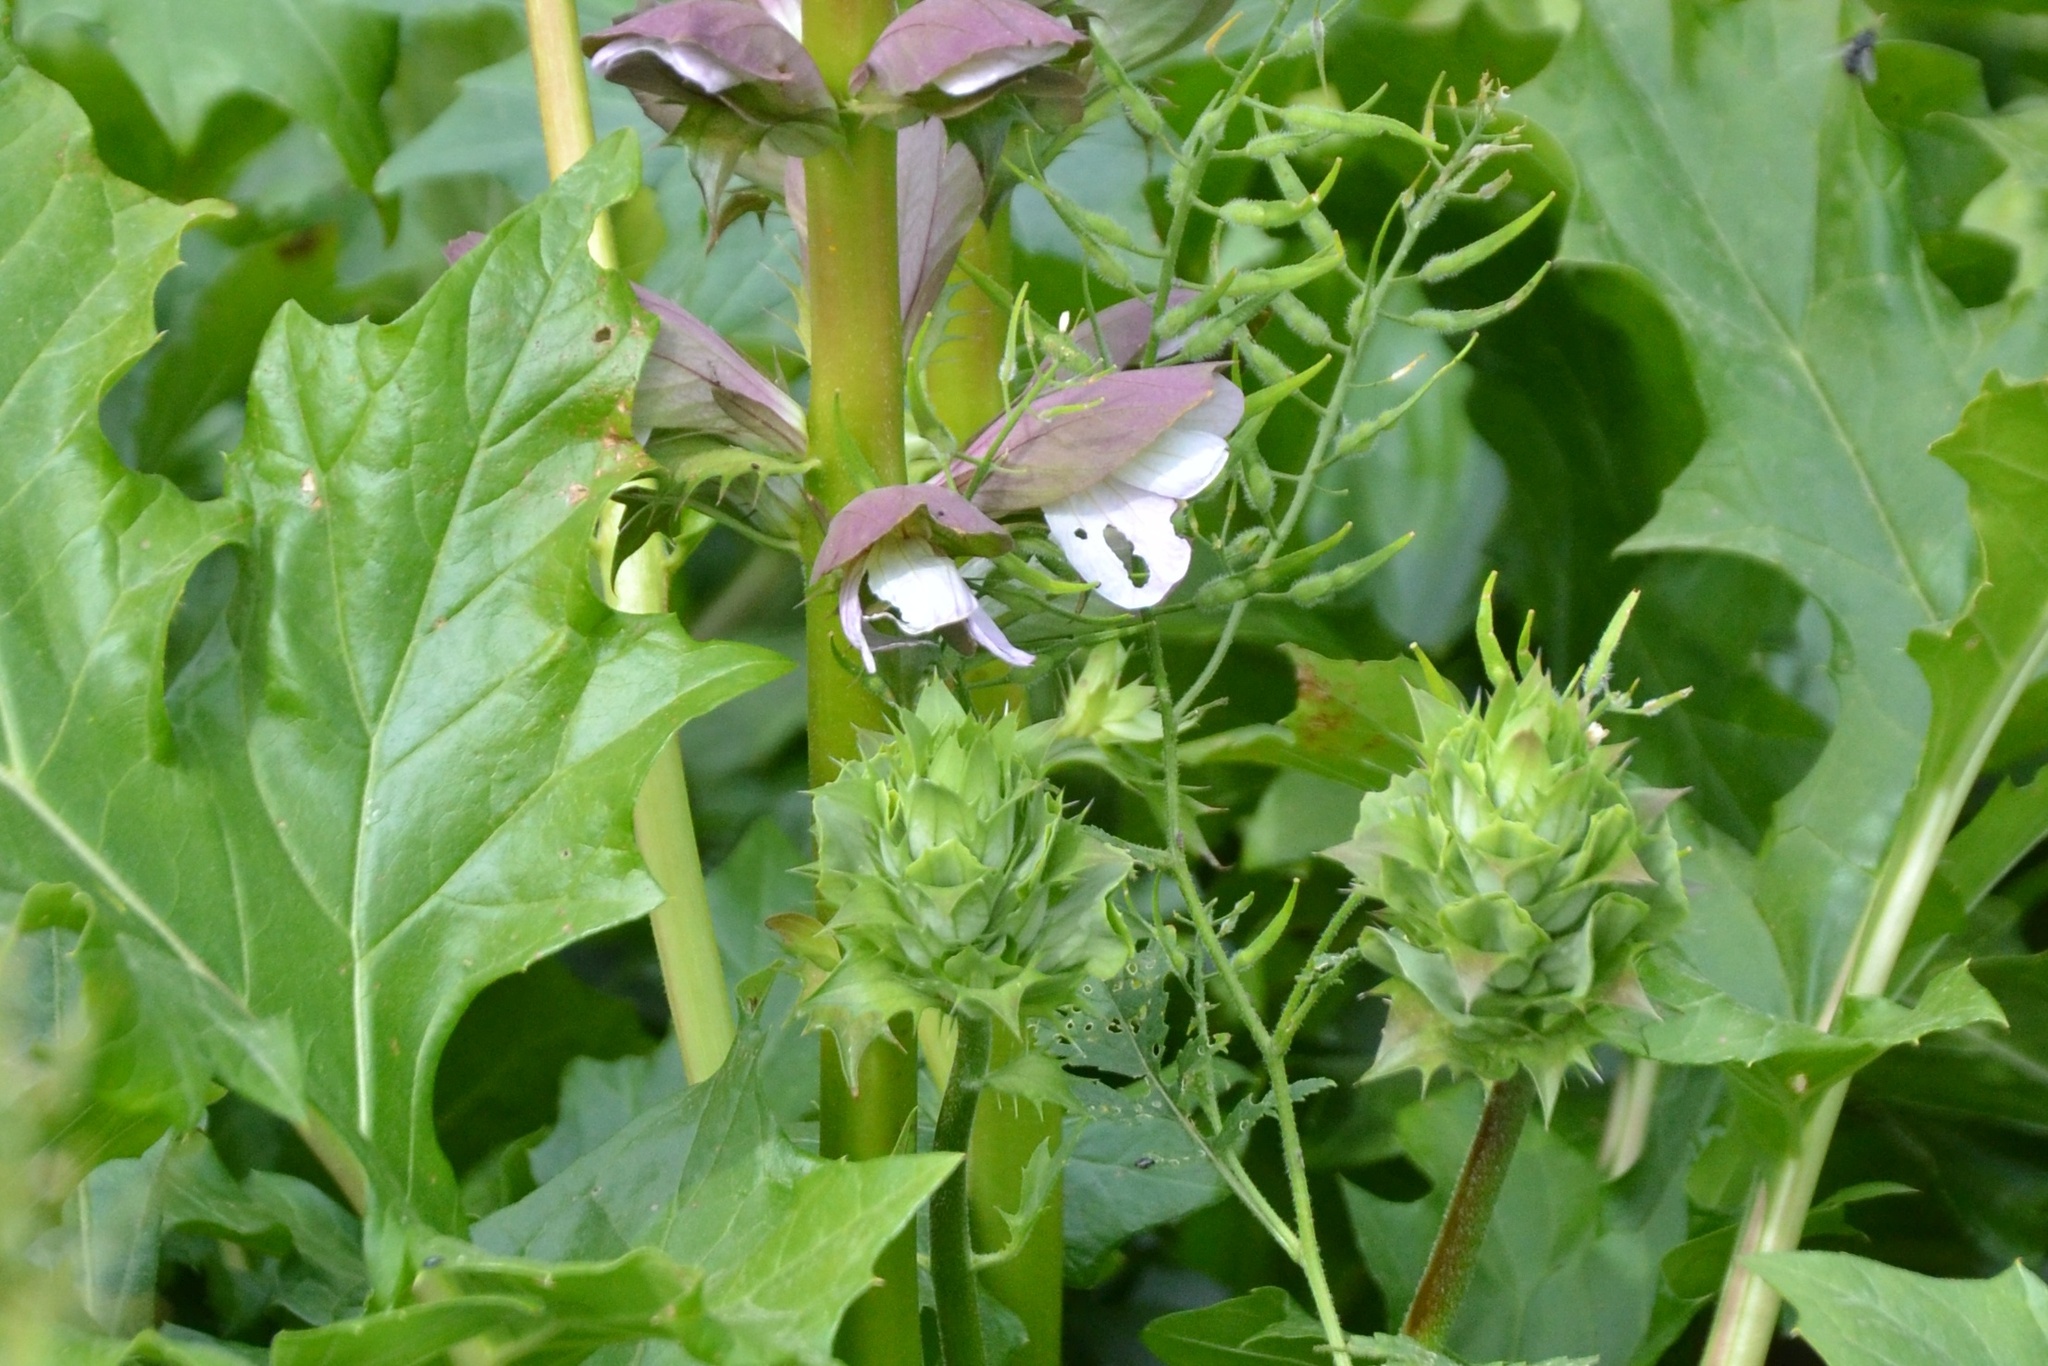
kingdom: Plantae
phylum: Tracheophyta
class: Magnoliopsida
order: Lamiales
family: Acanthaceae
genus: Acanthus
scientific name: Acanthus mollis
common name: Bear's-breech
